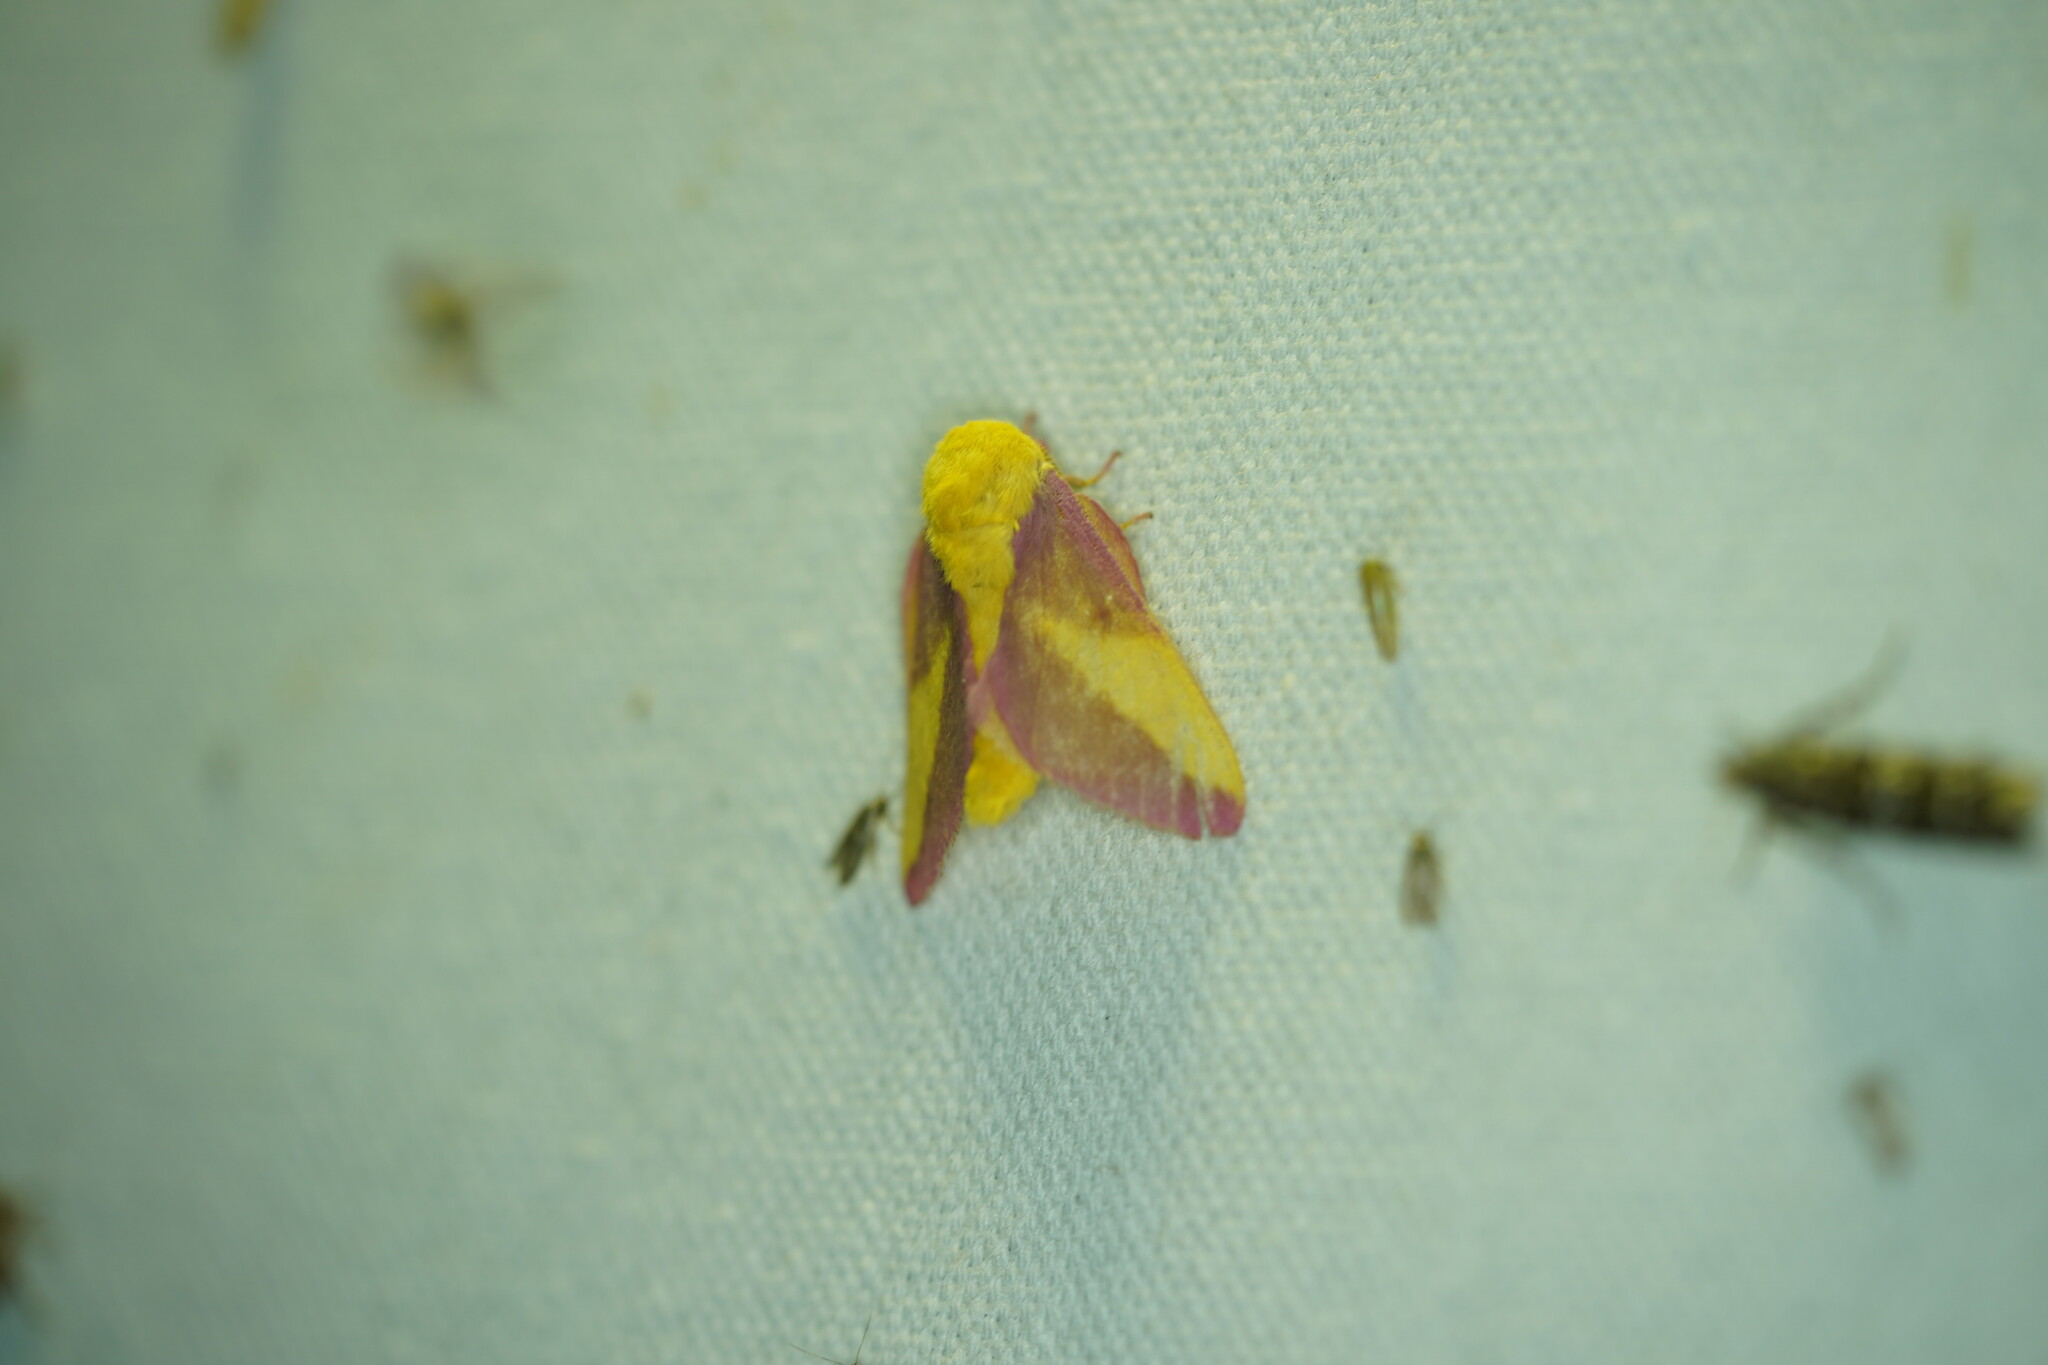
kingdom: Animalia
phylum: Arthropoda
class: Insecta
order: Lepidoptera
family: Saturniidae
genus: Dryocampa
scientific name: Dryocampa rubicunda
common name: Rosy maple moth
